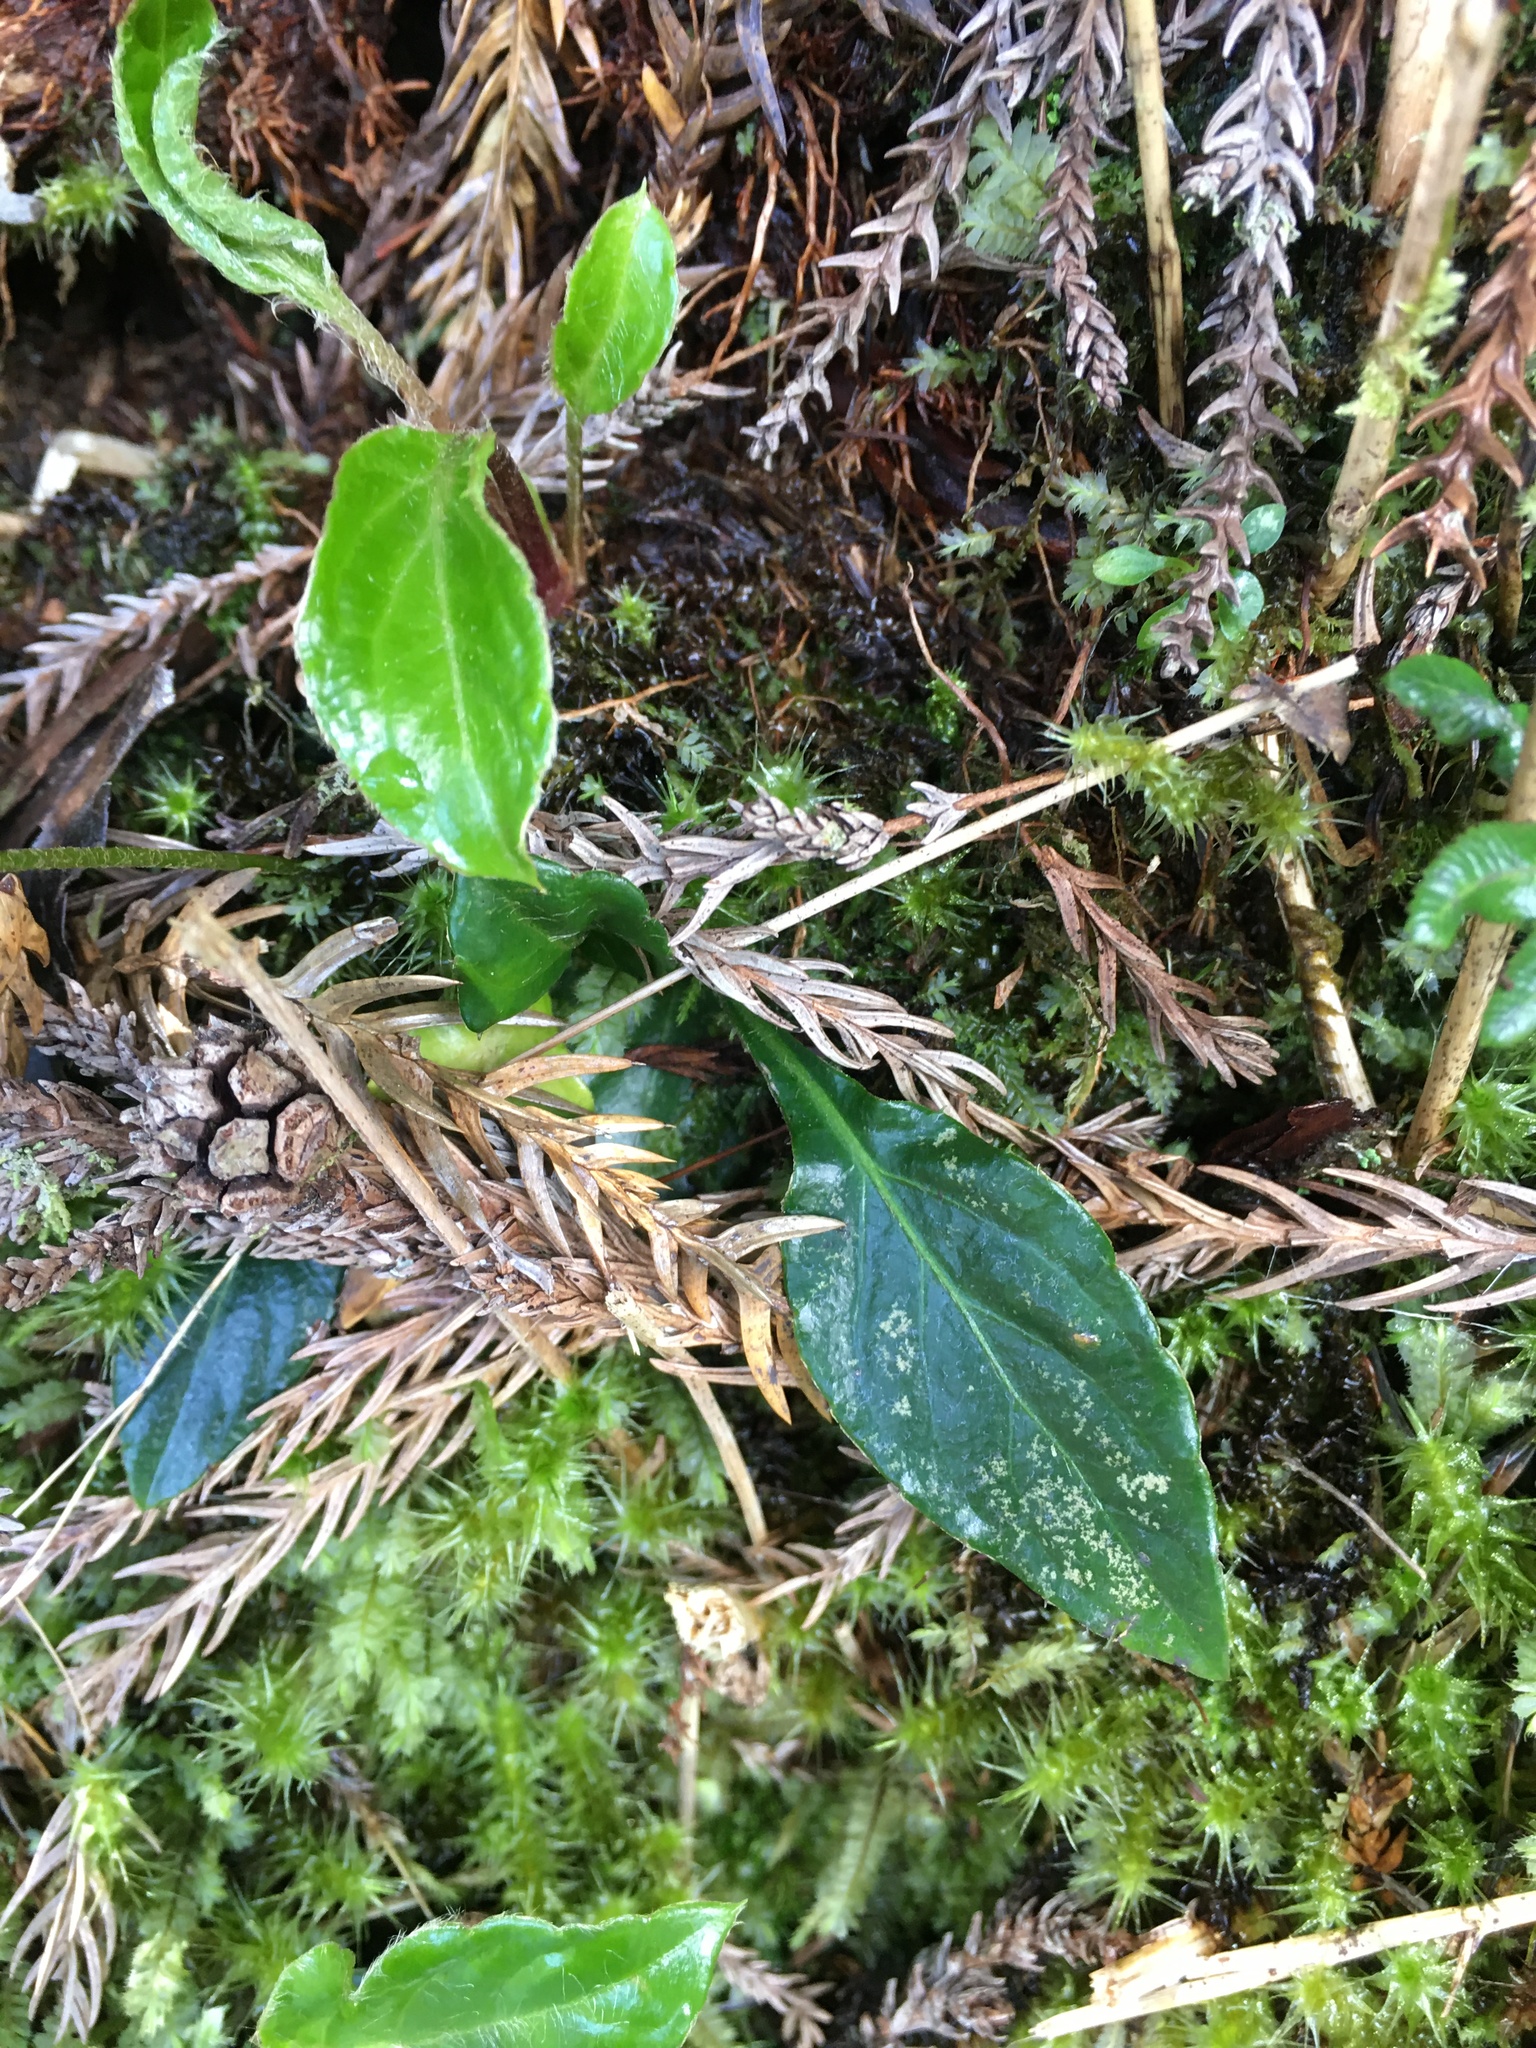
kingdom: Plantae
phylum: Tracheophyta
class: Magnoliopsida
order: Asterales
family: Asteraceae
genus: Ainsliaea
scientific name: Ainsliaea henryi
